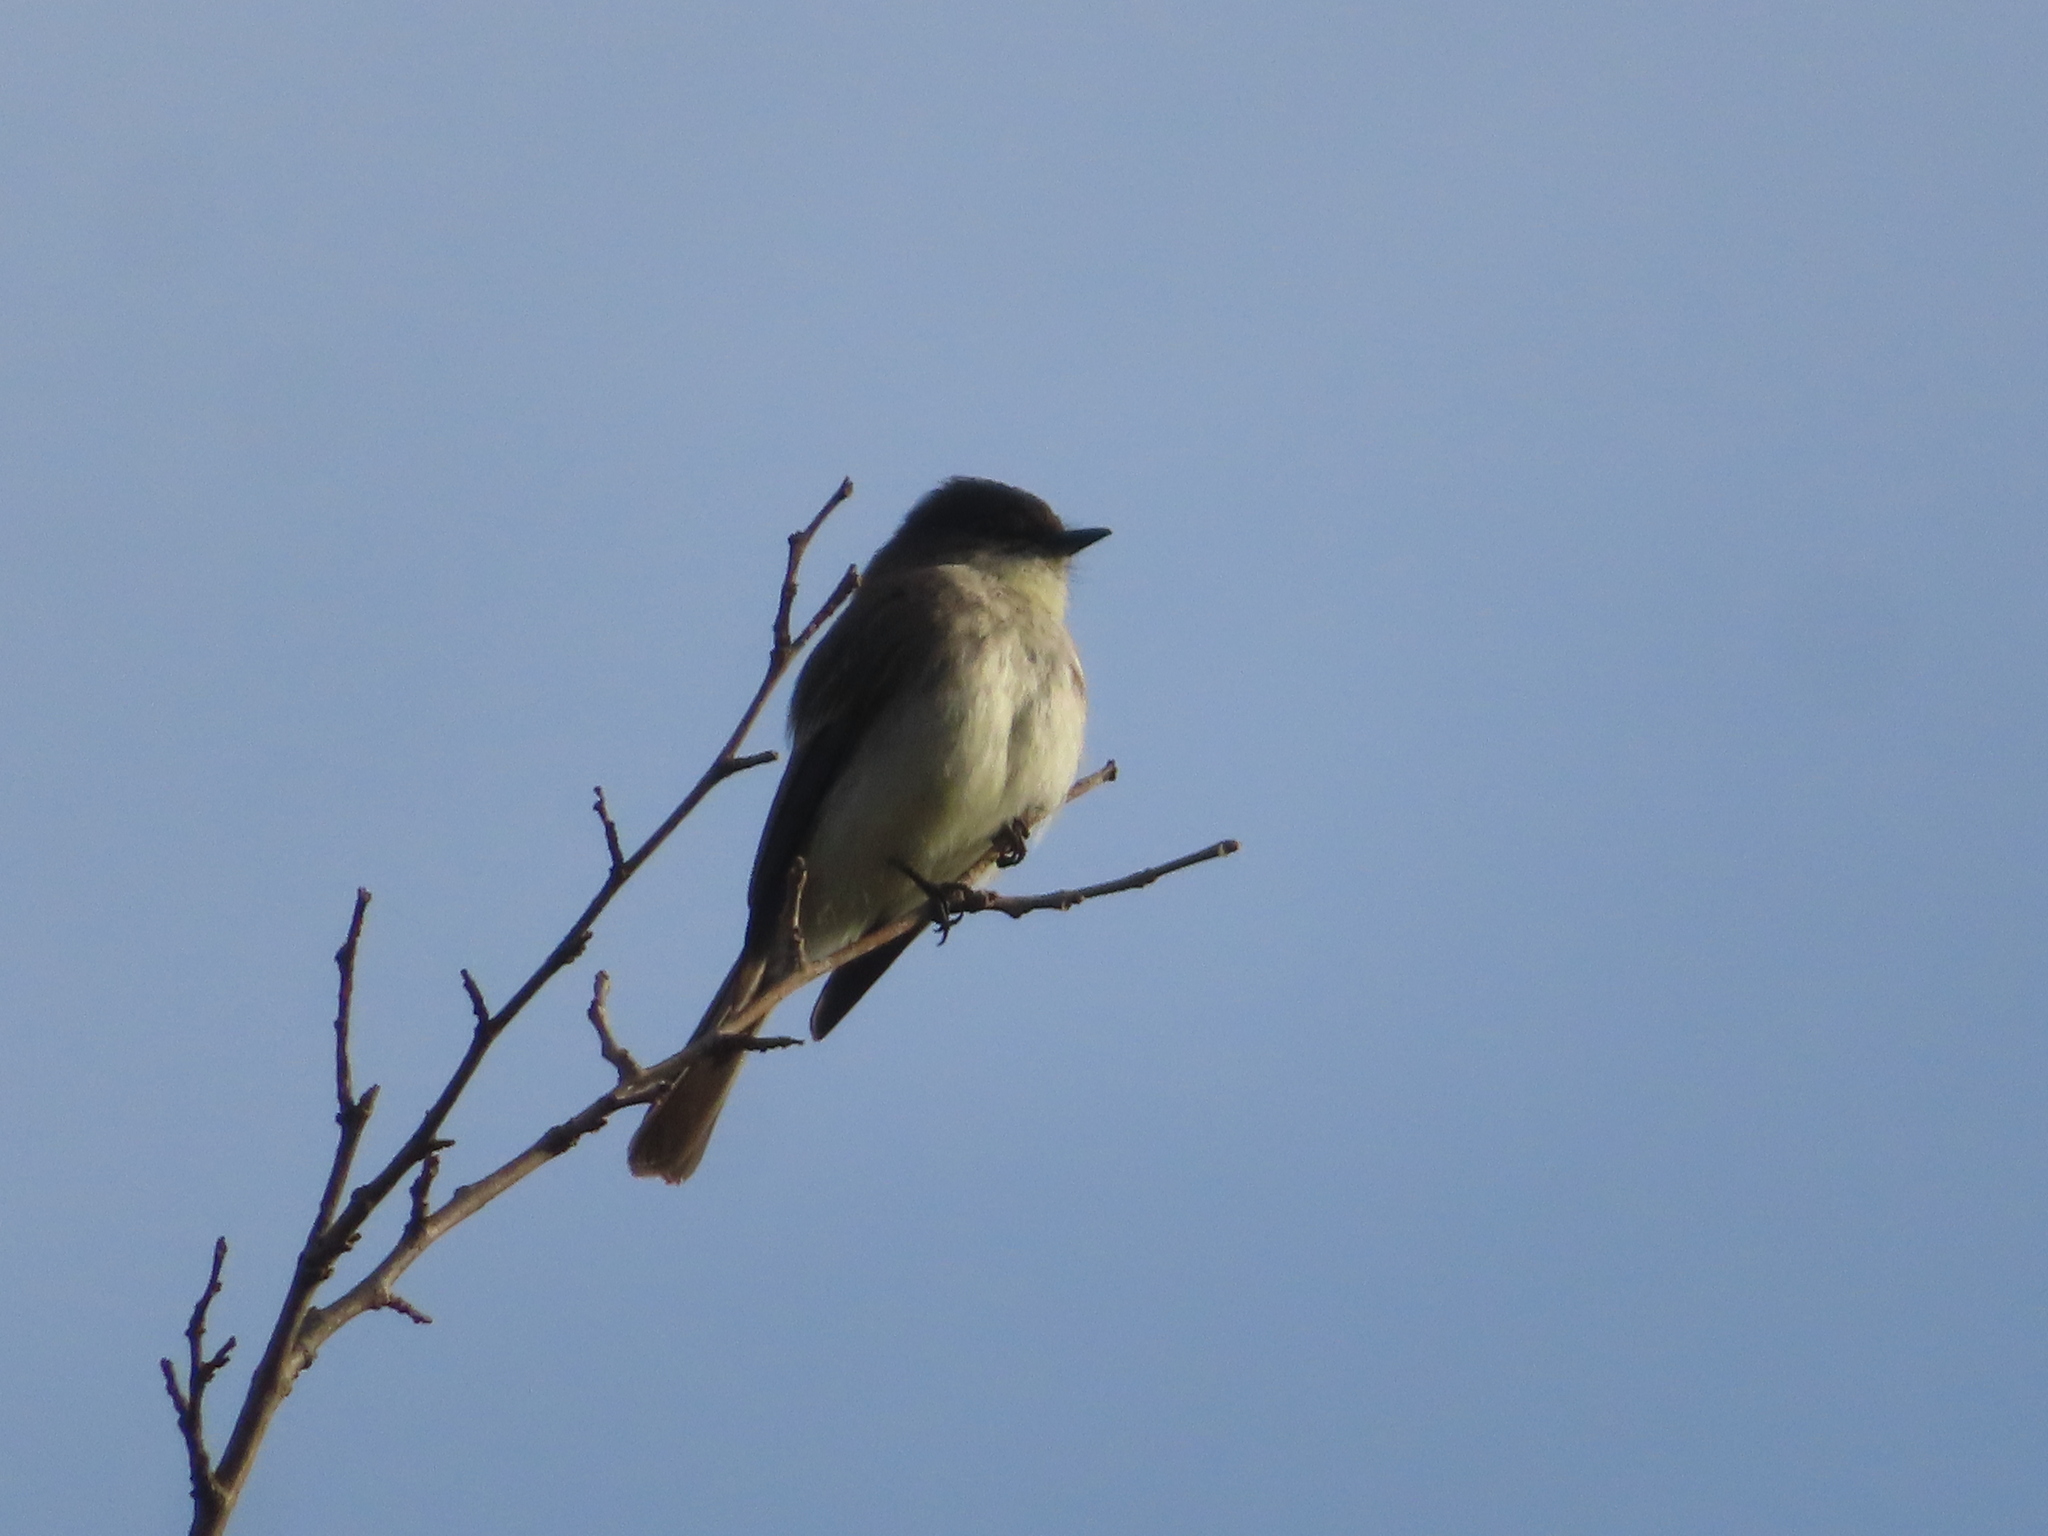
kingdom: Animalia
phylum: Chordata
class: Aves
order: Passeriformes
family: Tyrannidae
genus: Sayornis
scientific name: Sayornis phoebe
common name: Eastern phoebe
